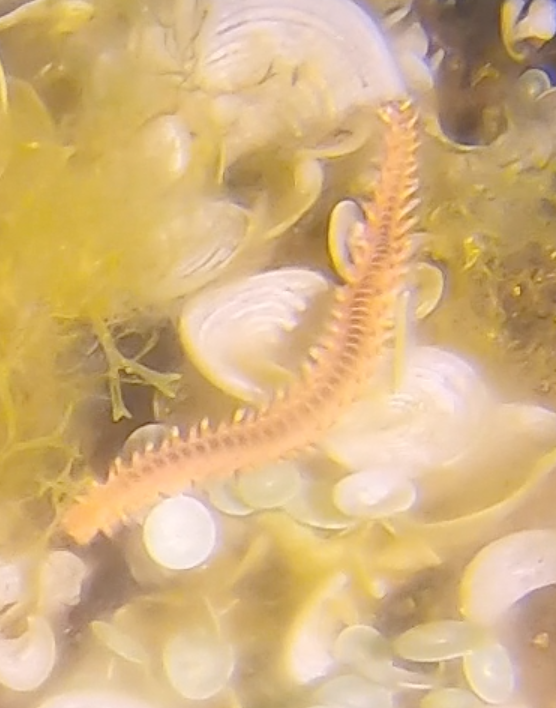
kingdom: Animalia
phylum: Annelida
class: Polychaeta
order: Amphinomida
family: Amphinomidae
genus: Hermodice
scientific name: Hermodice carunculata
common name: Bearded fireworm
